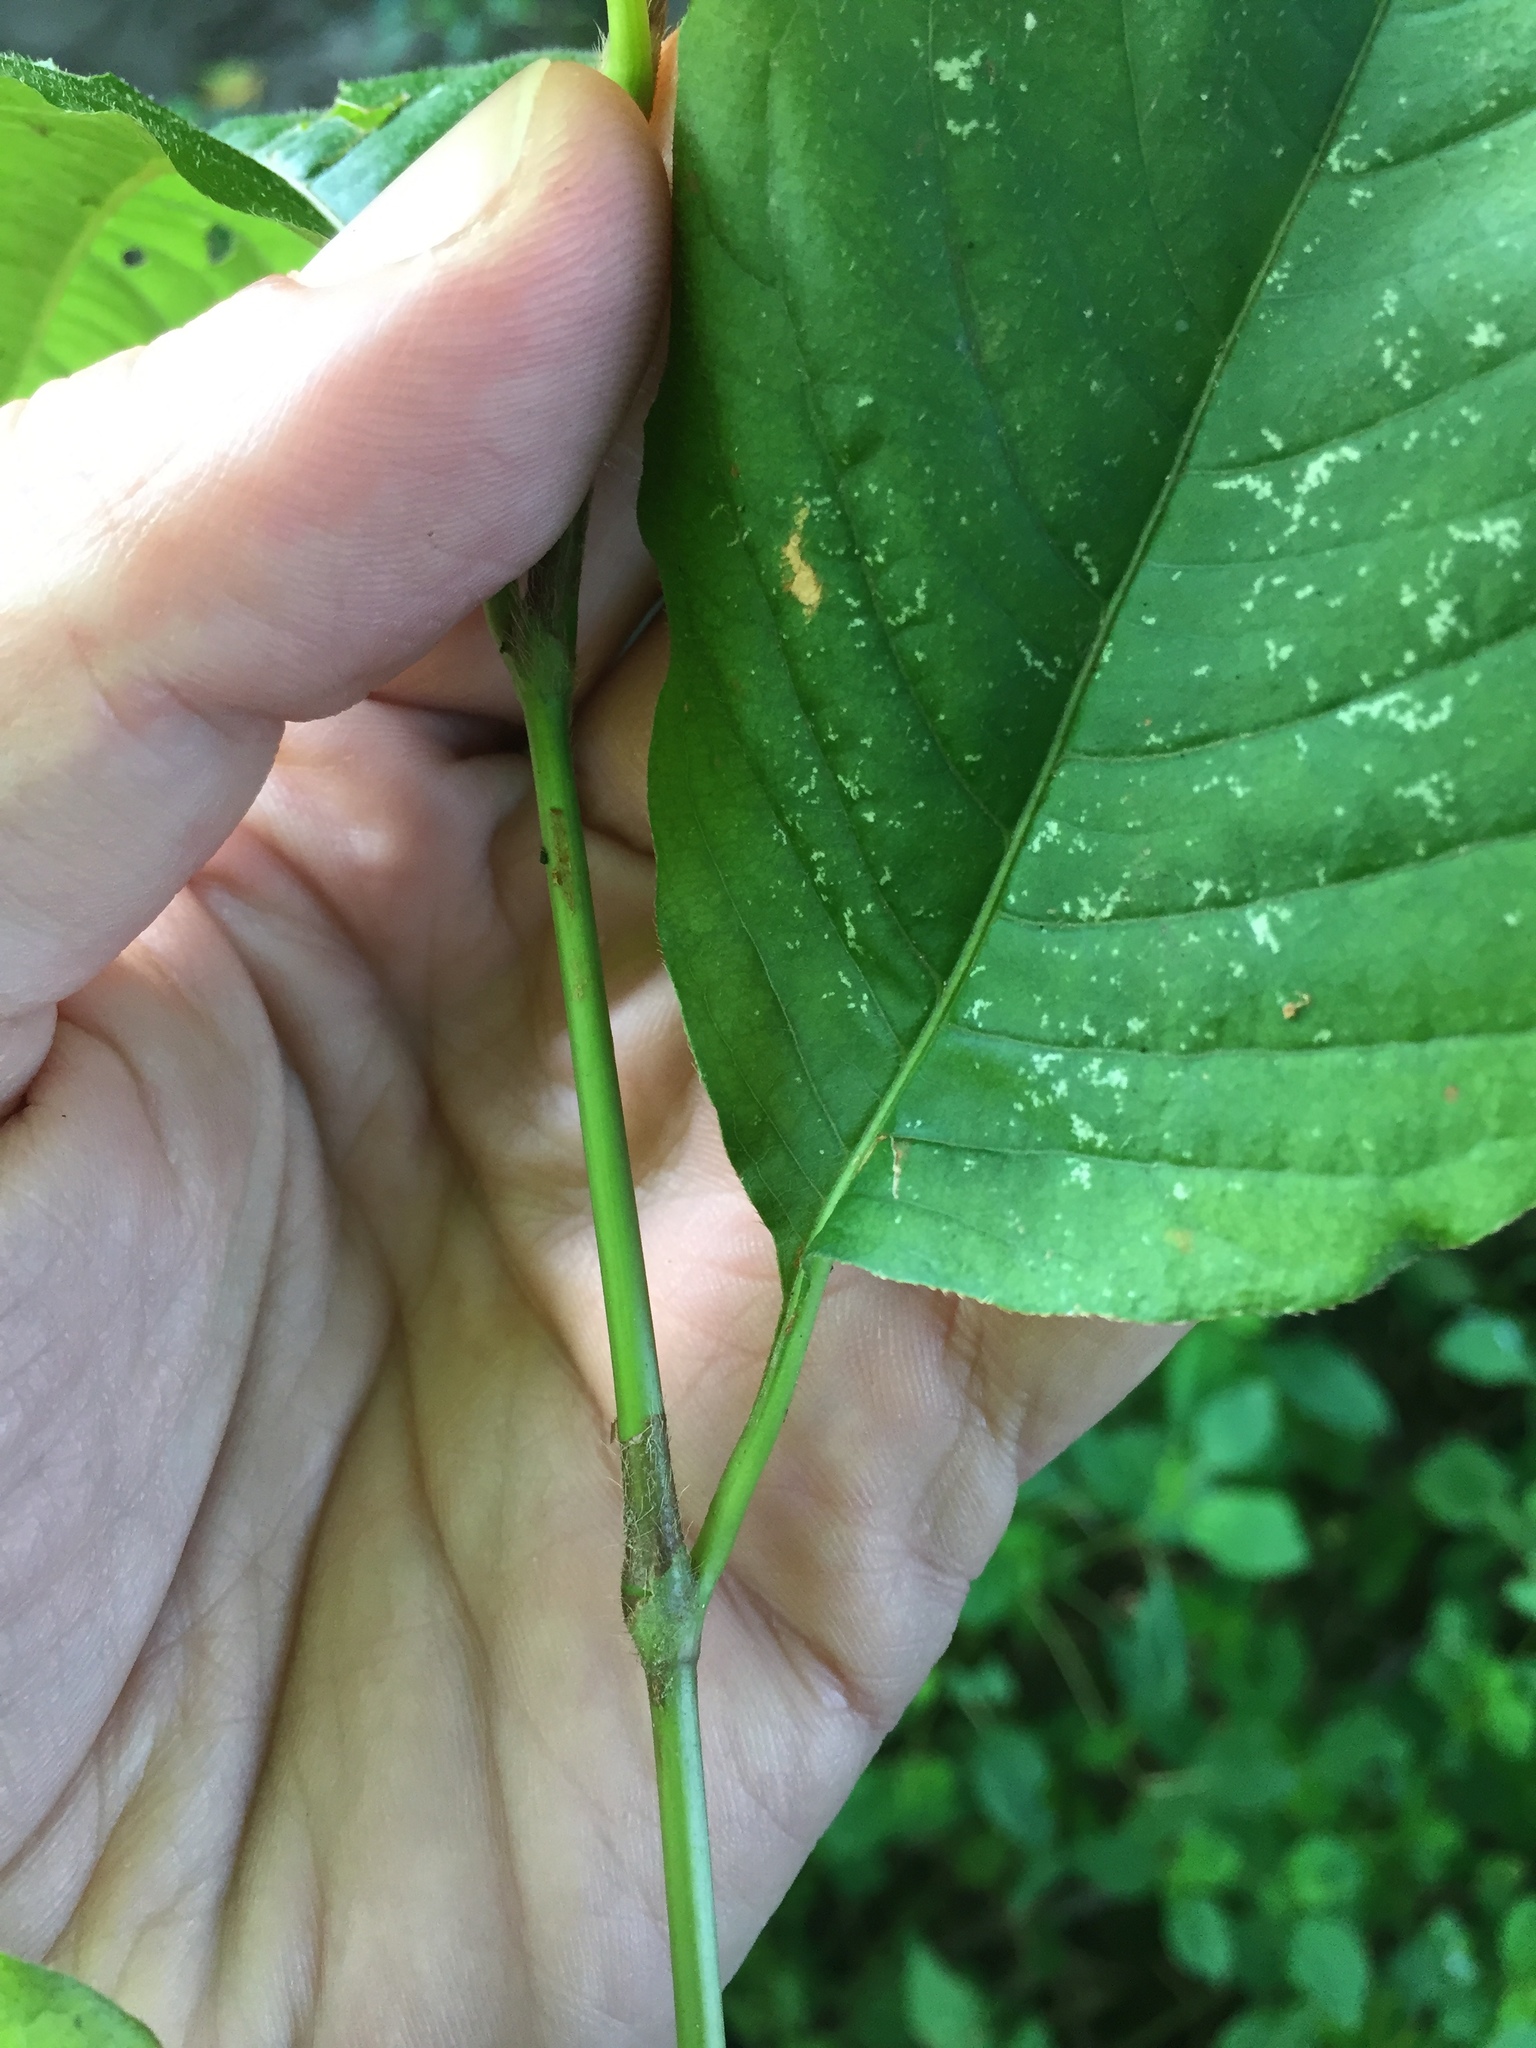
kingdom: Plantae
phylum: Tracheophyta
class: Magnoliopsida
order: Caryophyllales
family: Polygonaceae
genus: Persicaria
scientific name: Persicaria virginiana
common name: Jumpseed
